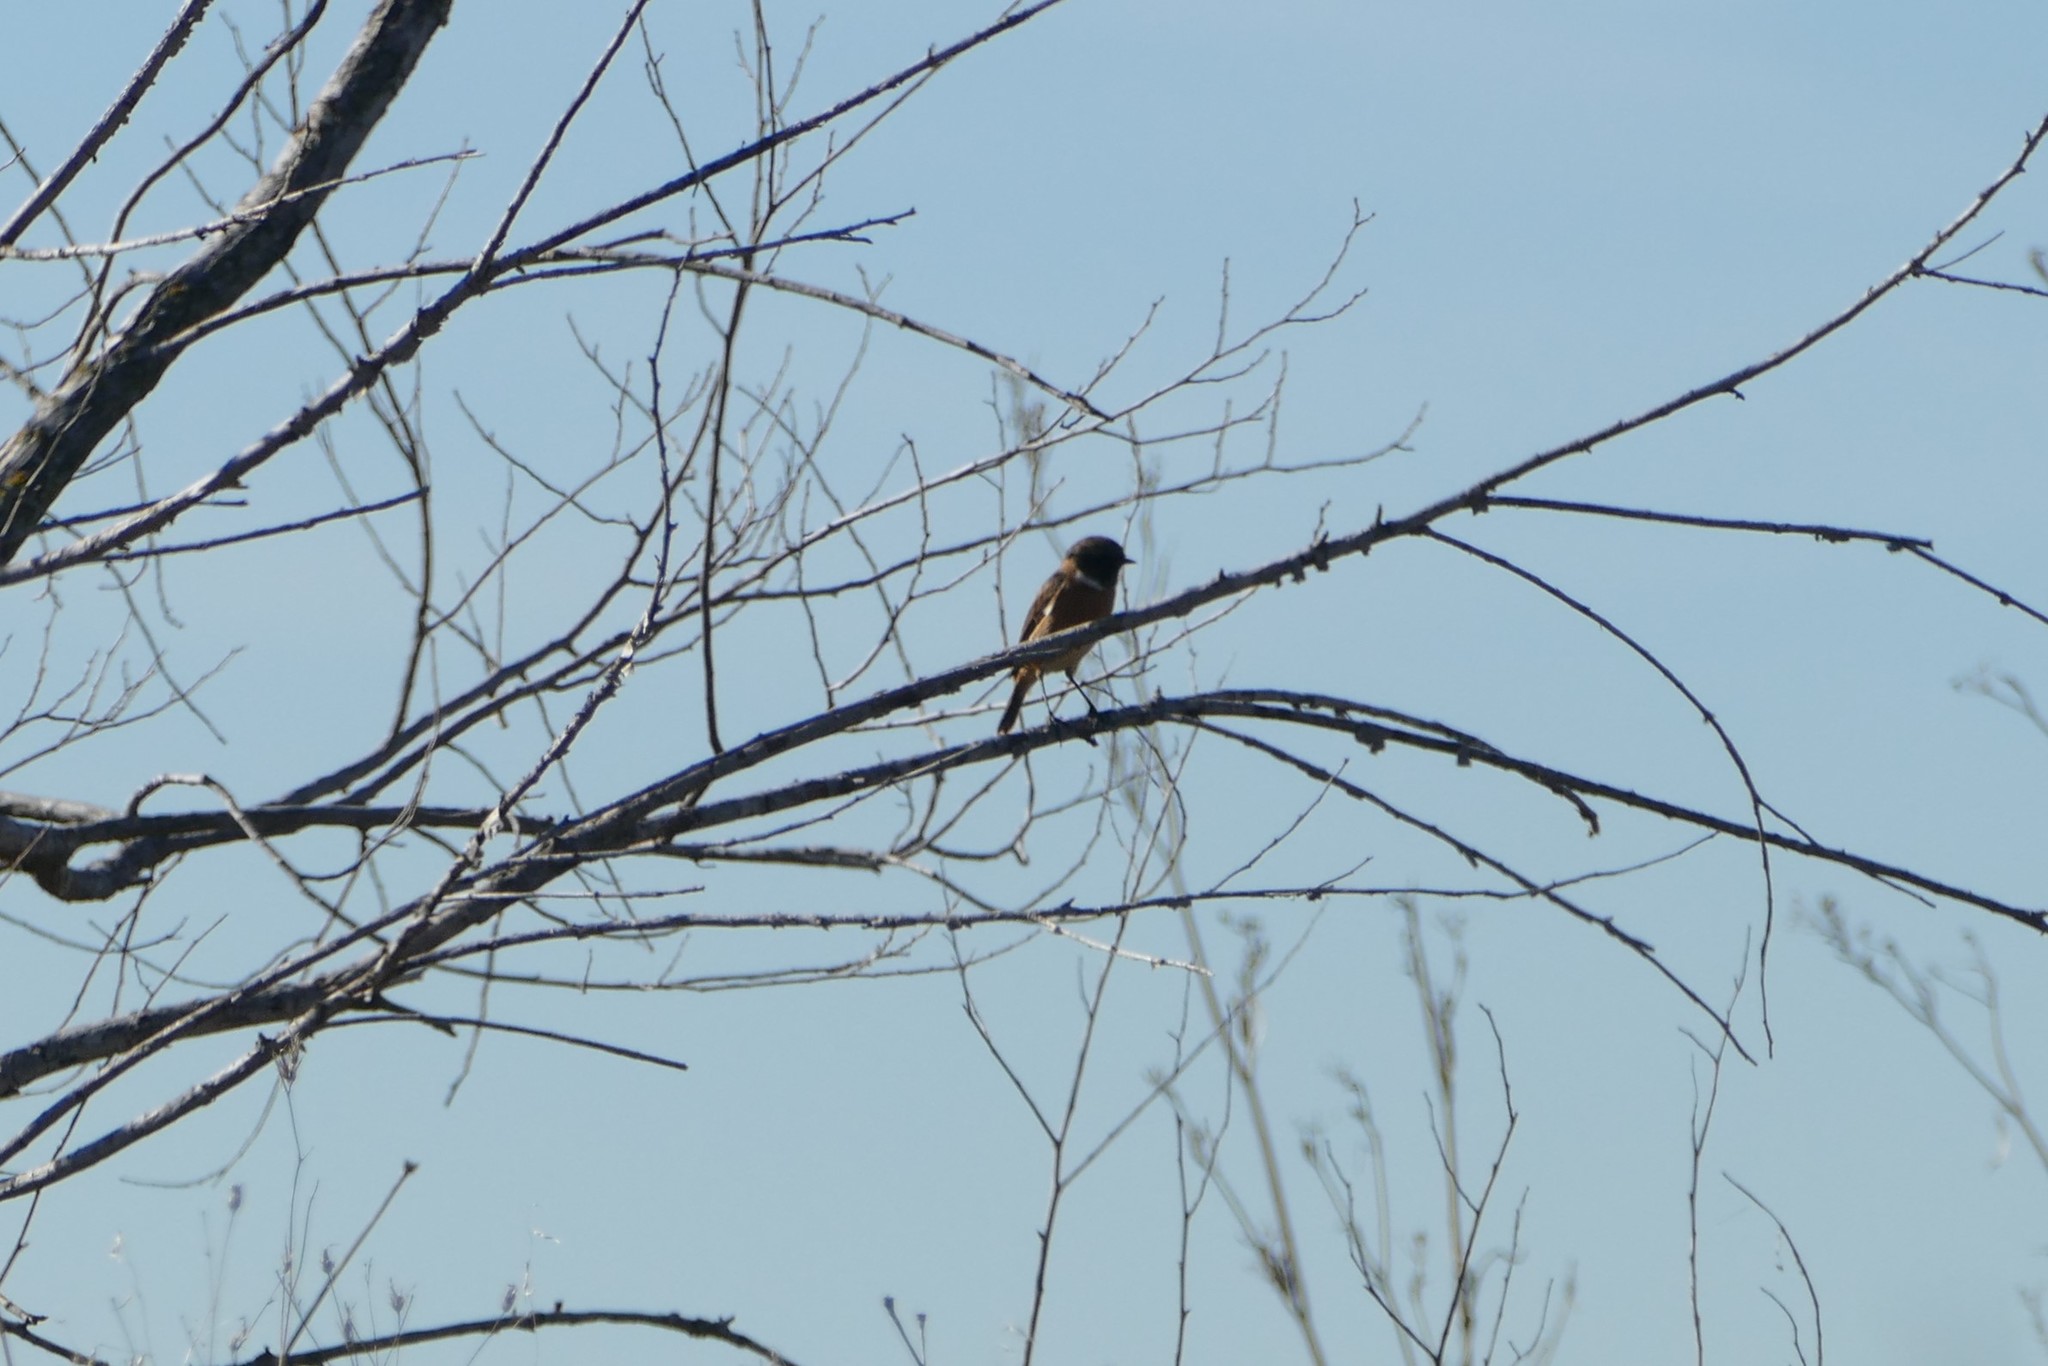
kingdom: Animalia
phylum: Chordata
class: Aves
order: Passeriformes
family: Muscicapidae
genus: Saxicola
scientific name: Saxicola rubicola
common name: European stonechat
